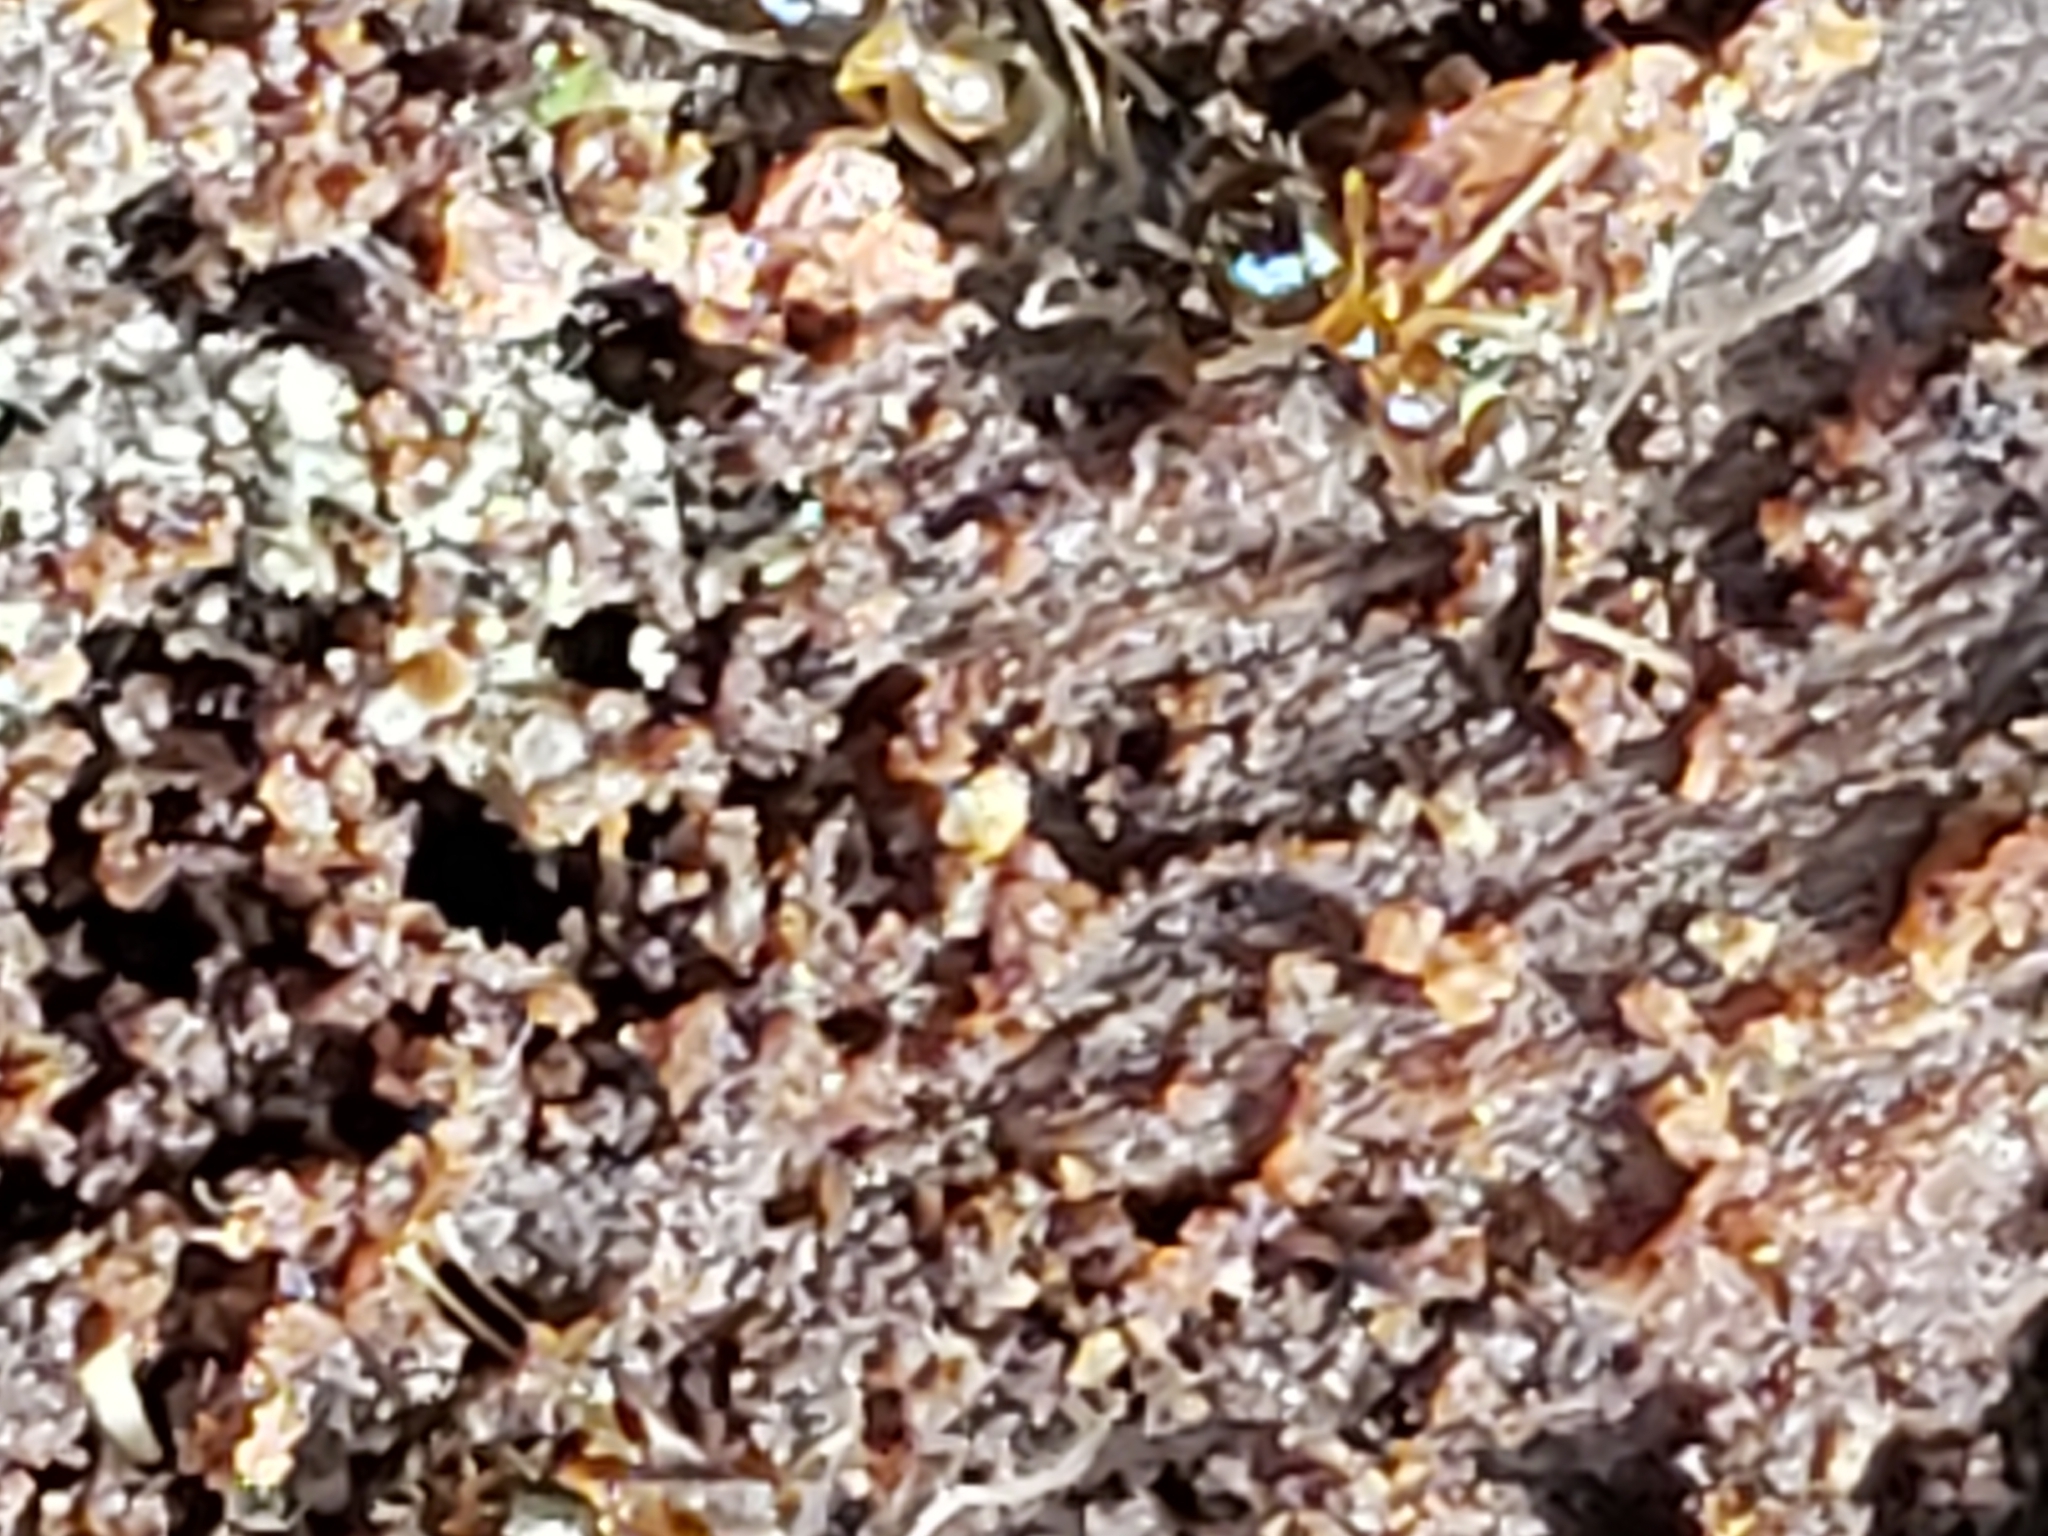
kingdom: Animalia
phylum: Arthropoda
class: Insecta
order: Hymenoptera
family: Formicidae
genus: Paratrechina
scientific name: Paratrechina flavipes
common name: Eastern asian formicine ant
